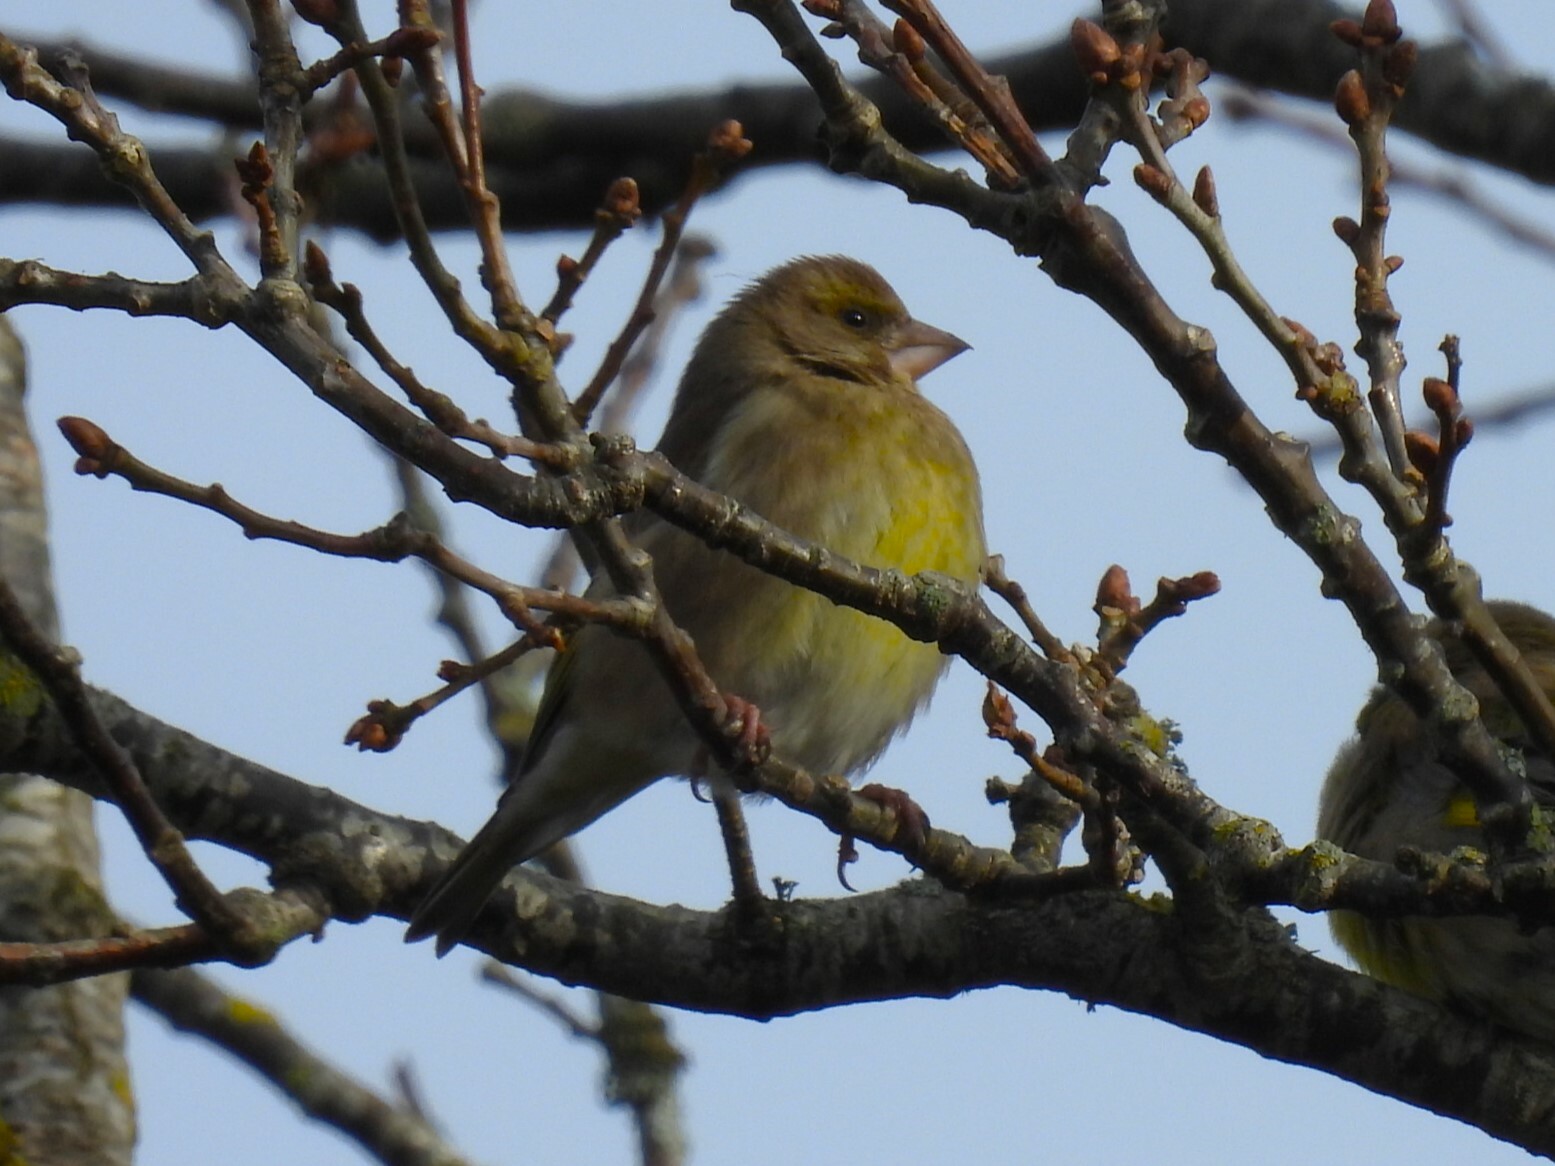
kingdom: Plantae
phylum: Tracheophyta
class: Liliopsida
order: Poales
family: Poaceae
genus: Chloris
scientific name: Chloris chloris
